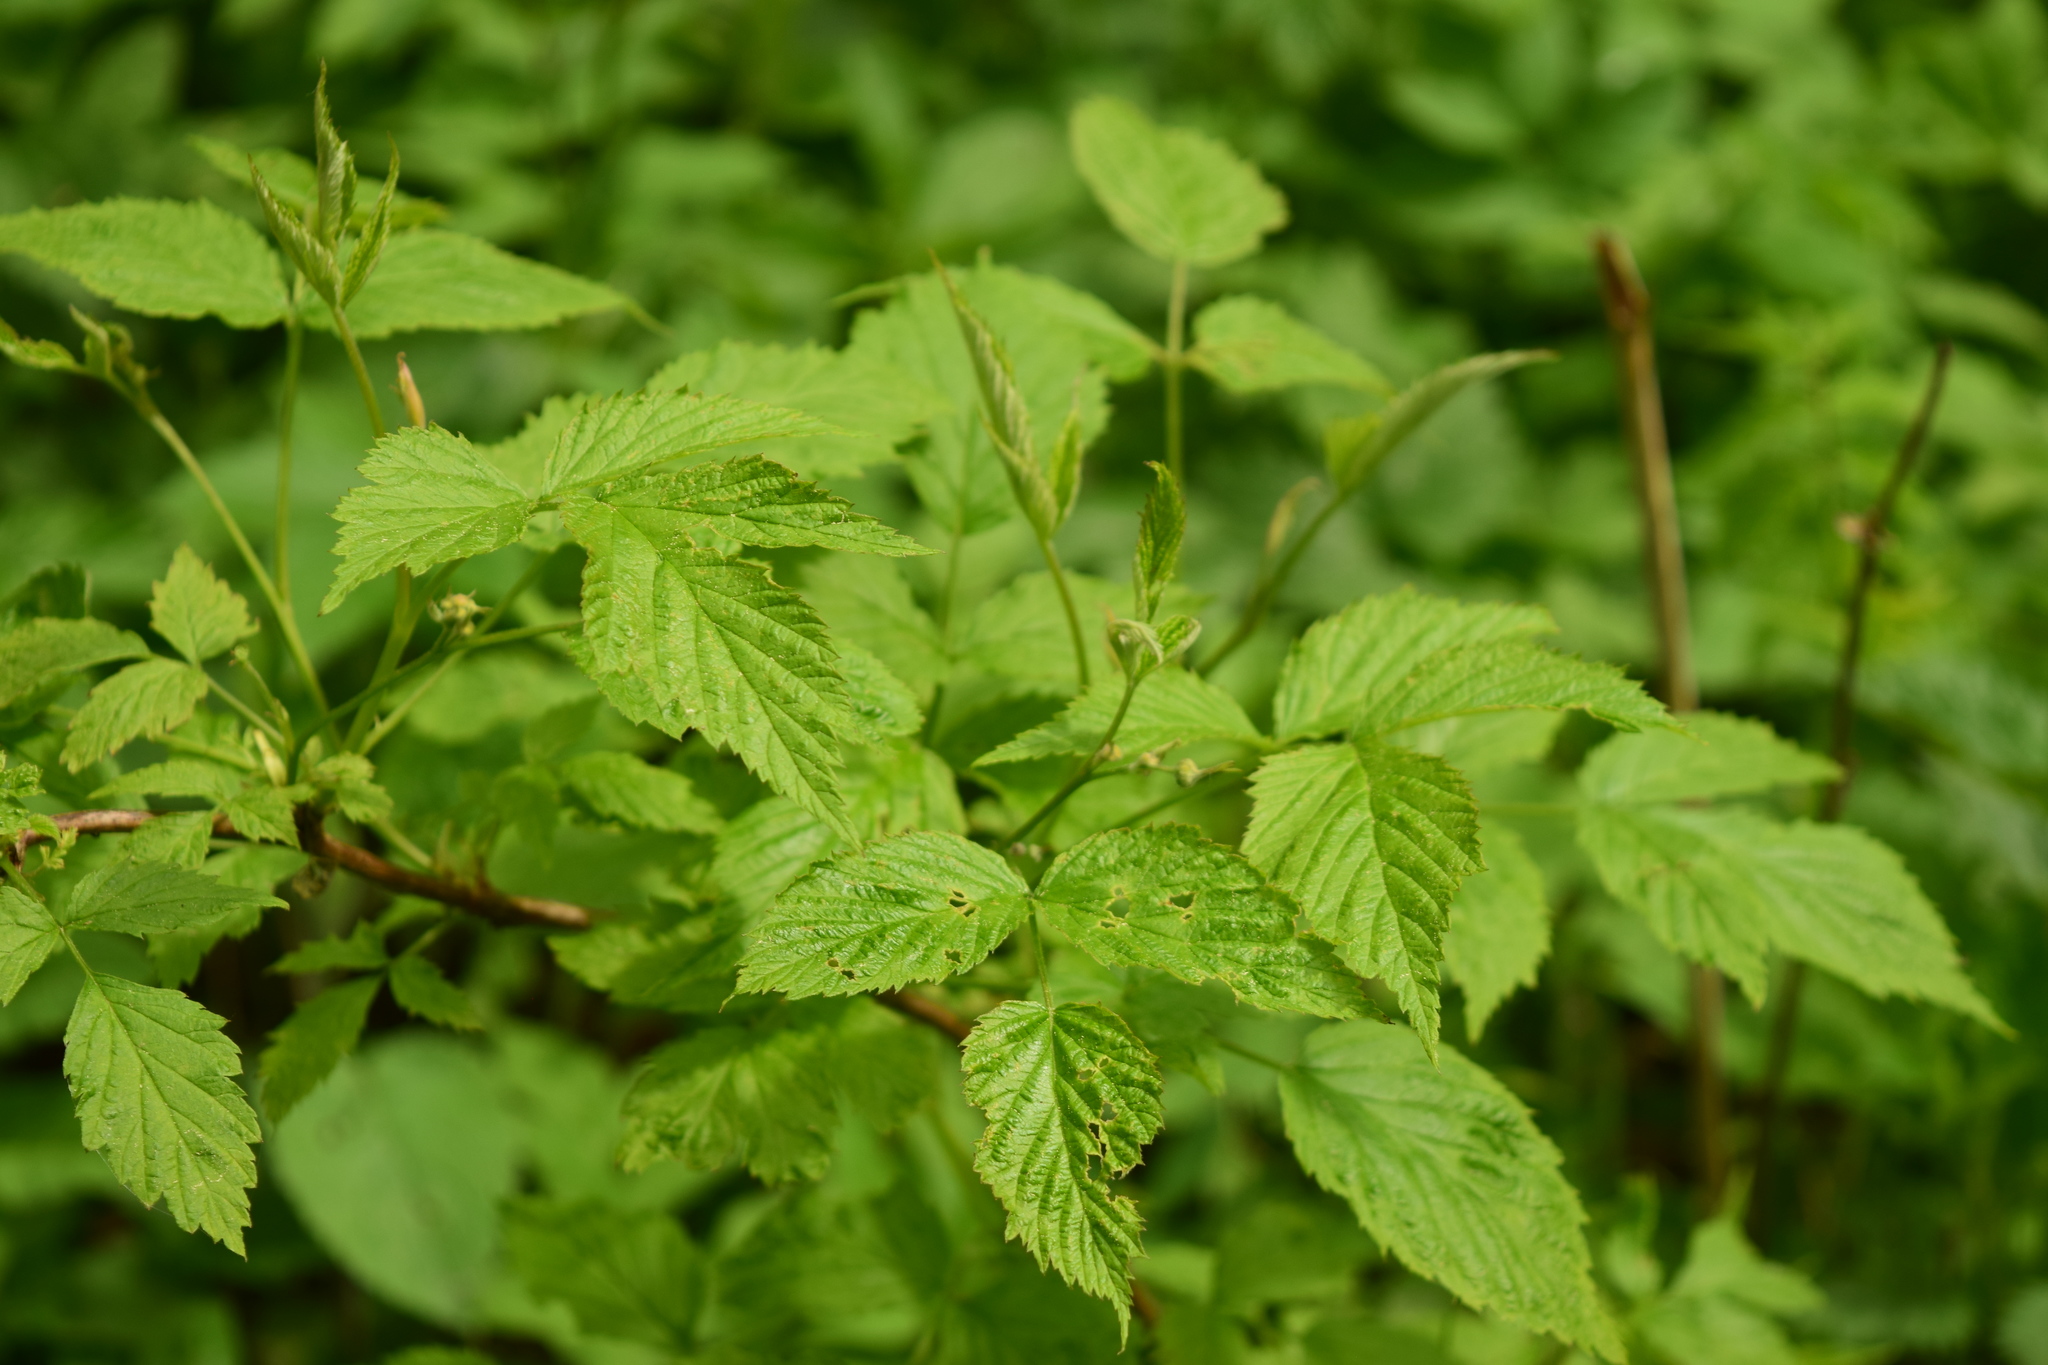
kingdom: Plantae
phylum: Tracheophyta
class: Magnoliopsida
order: Rosales
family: Rosaceae
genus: Rubus
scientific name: Rubus idaeus
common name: Raspberry
